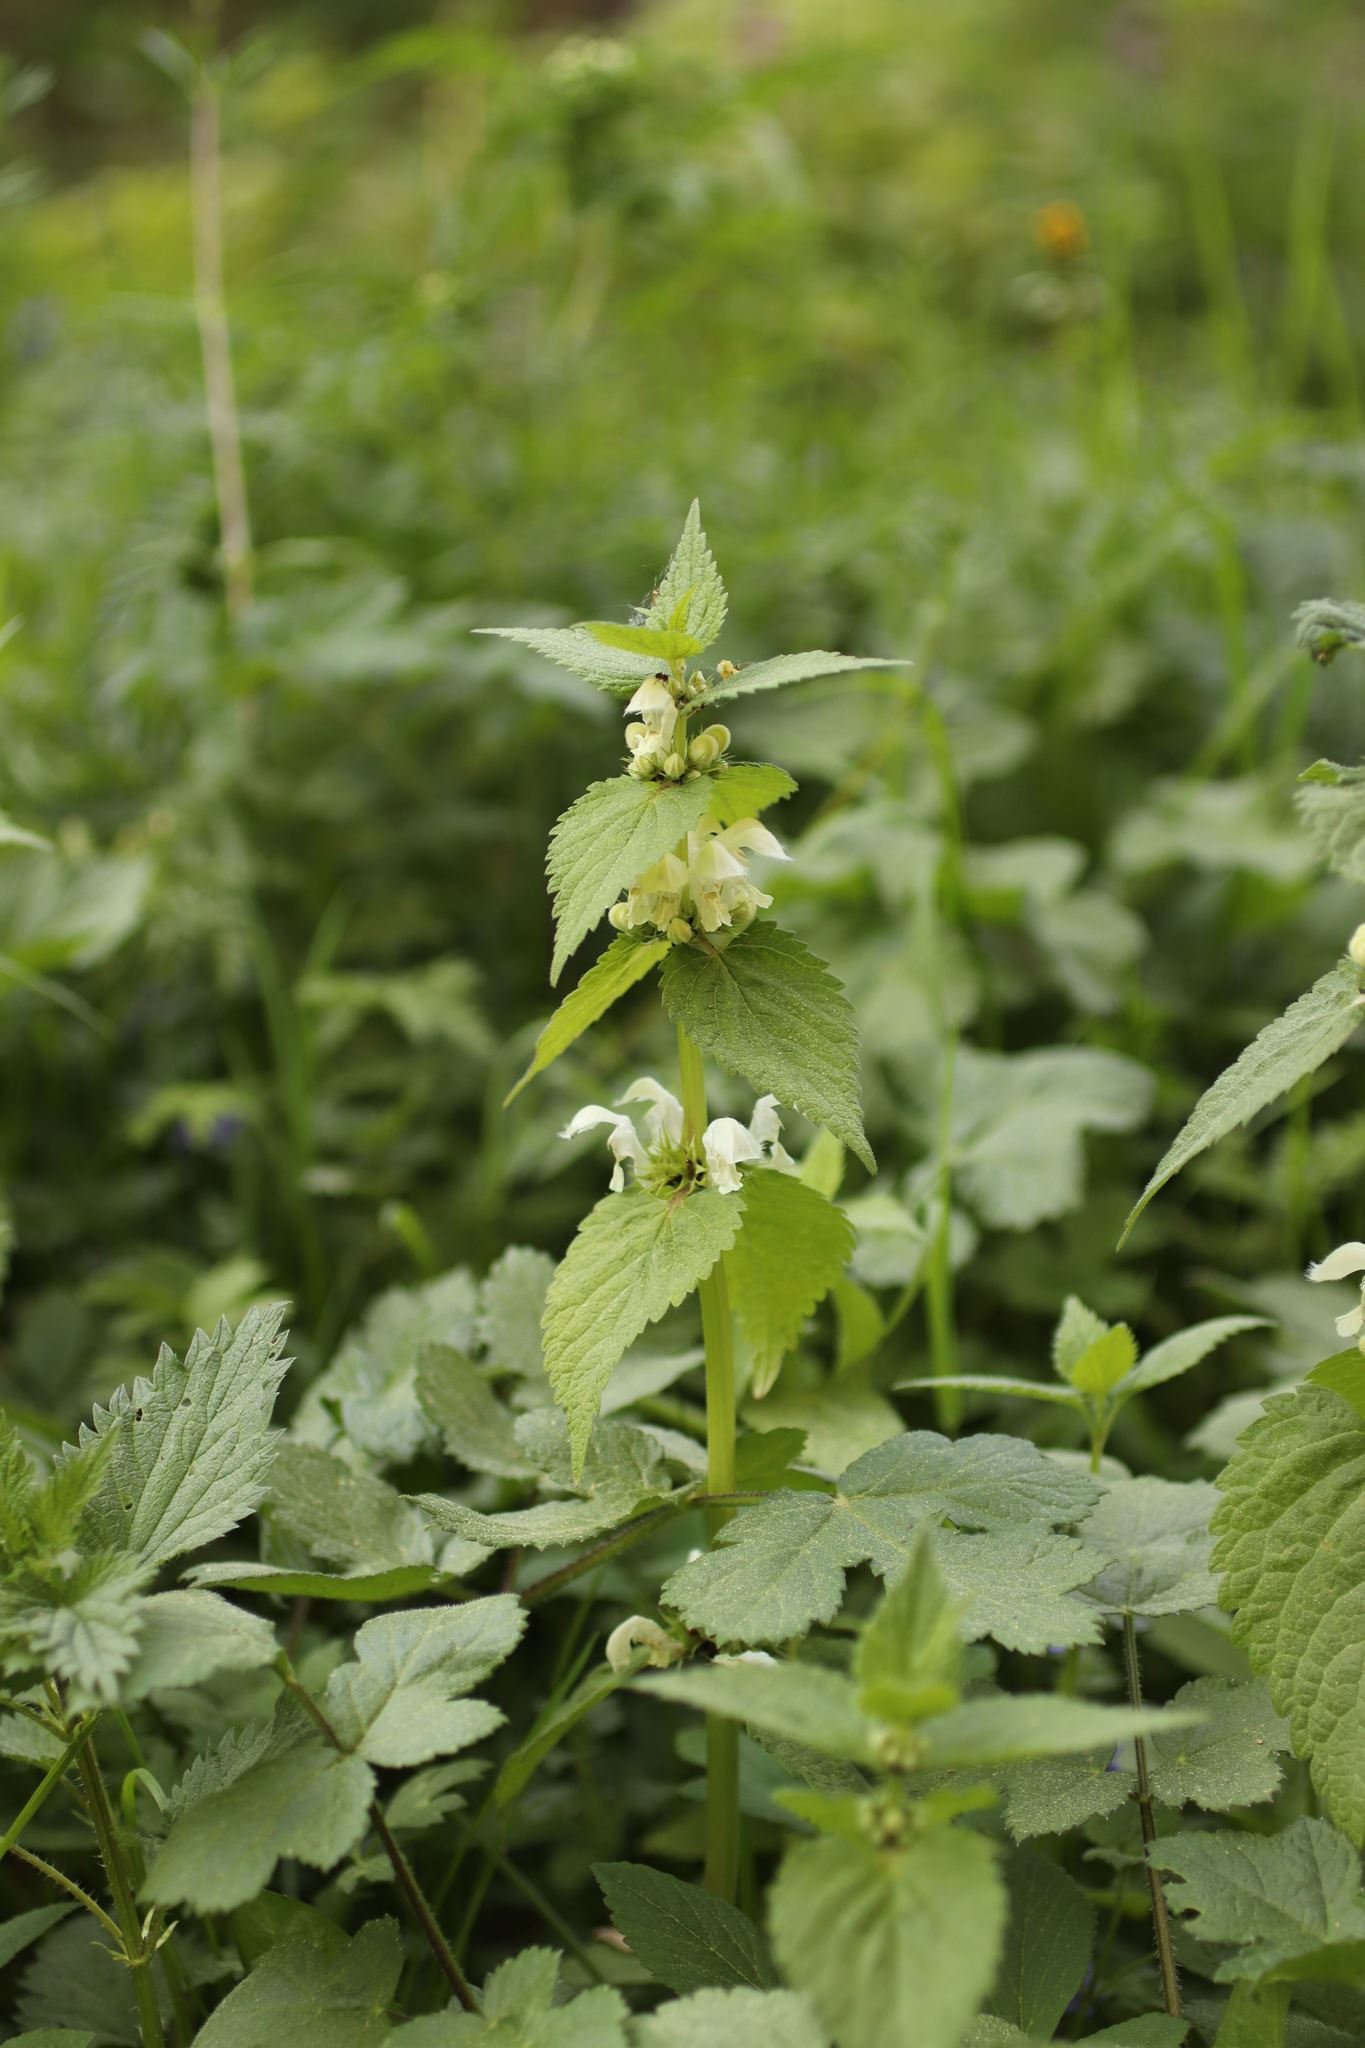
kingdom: Plantae
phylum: Tracheophyta
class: Magnoliopsida
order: Lamiales
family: Lamiaceae
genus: Lamium
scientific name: Lamium album
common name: White dead-nettle
